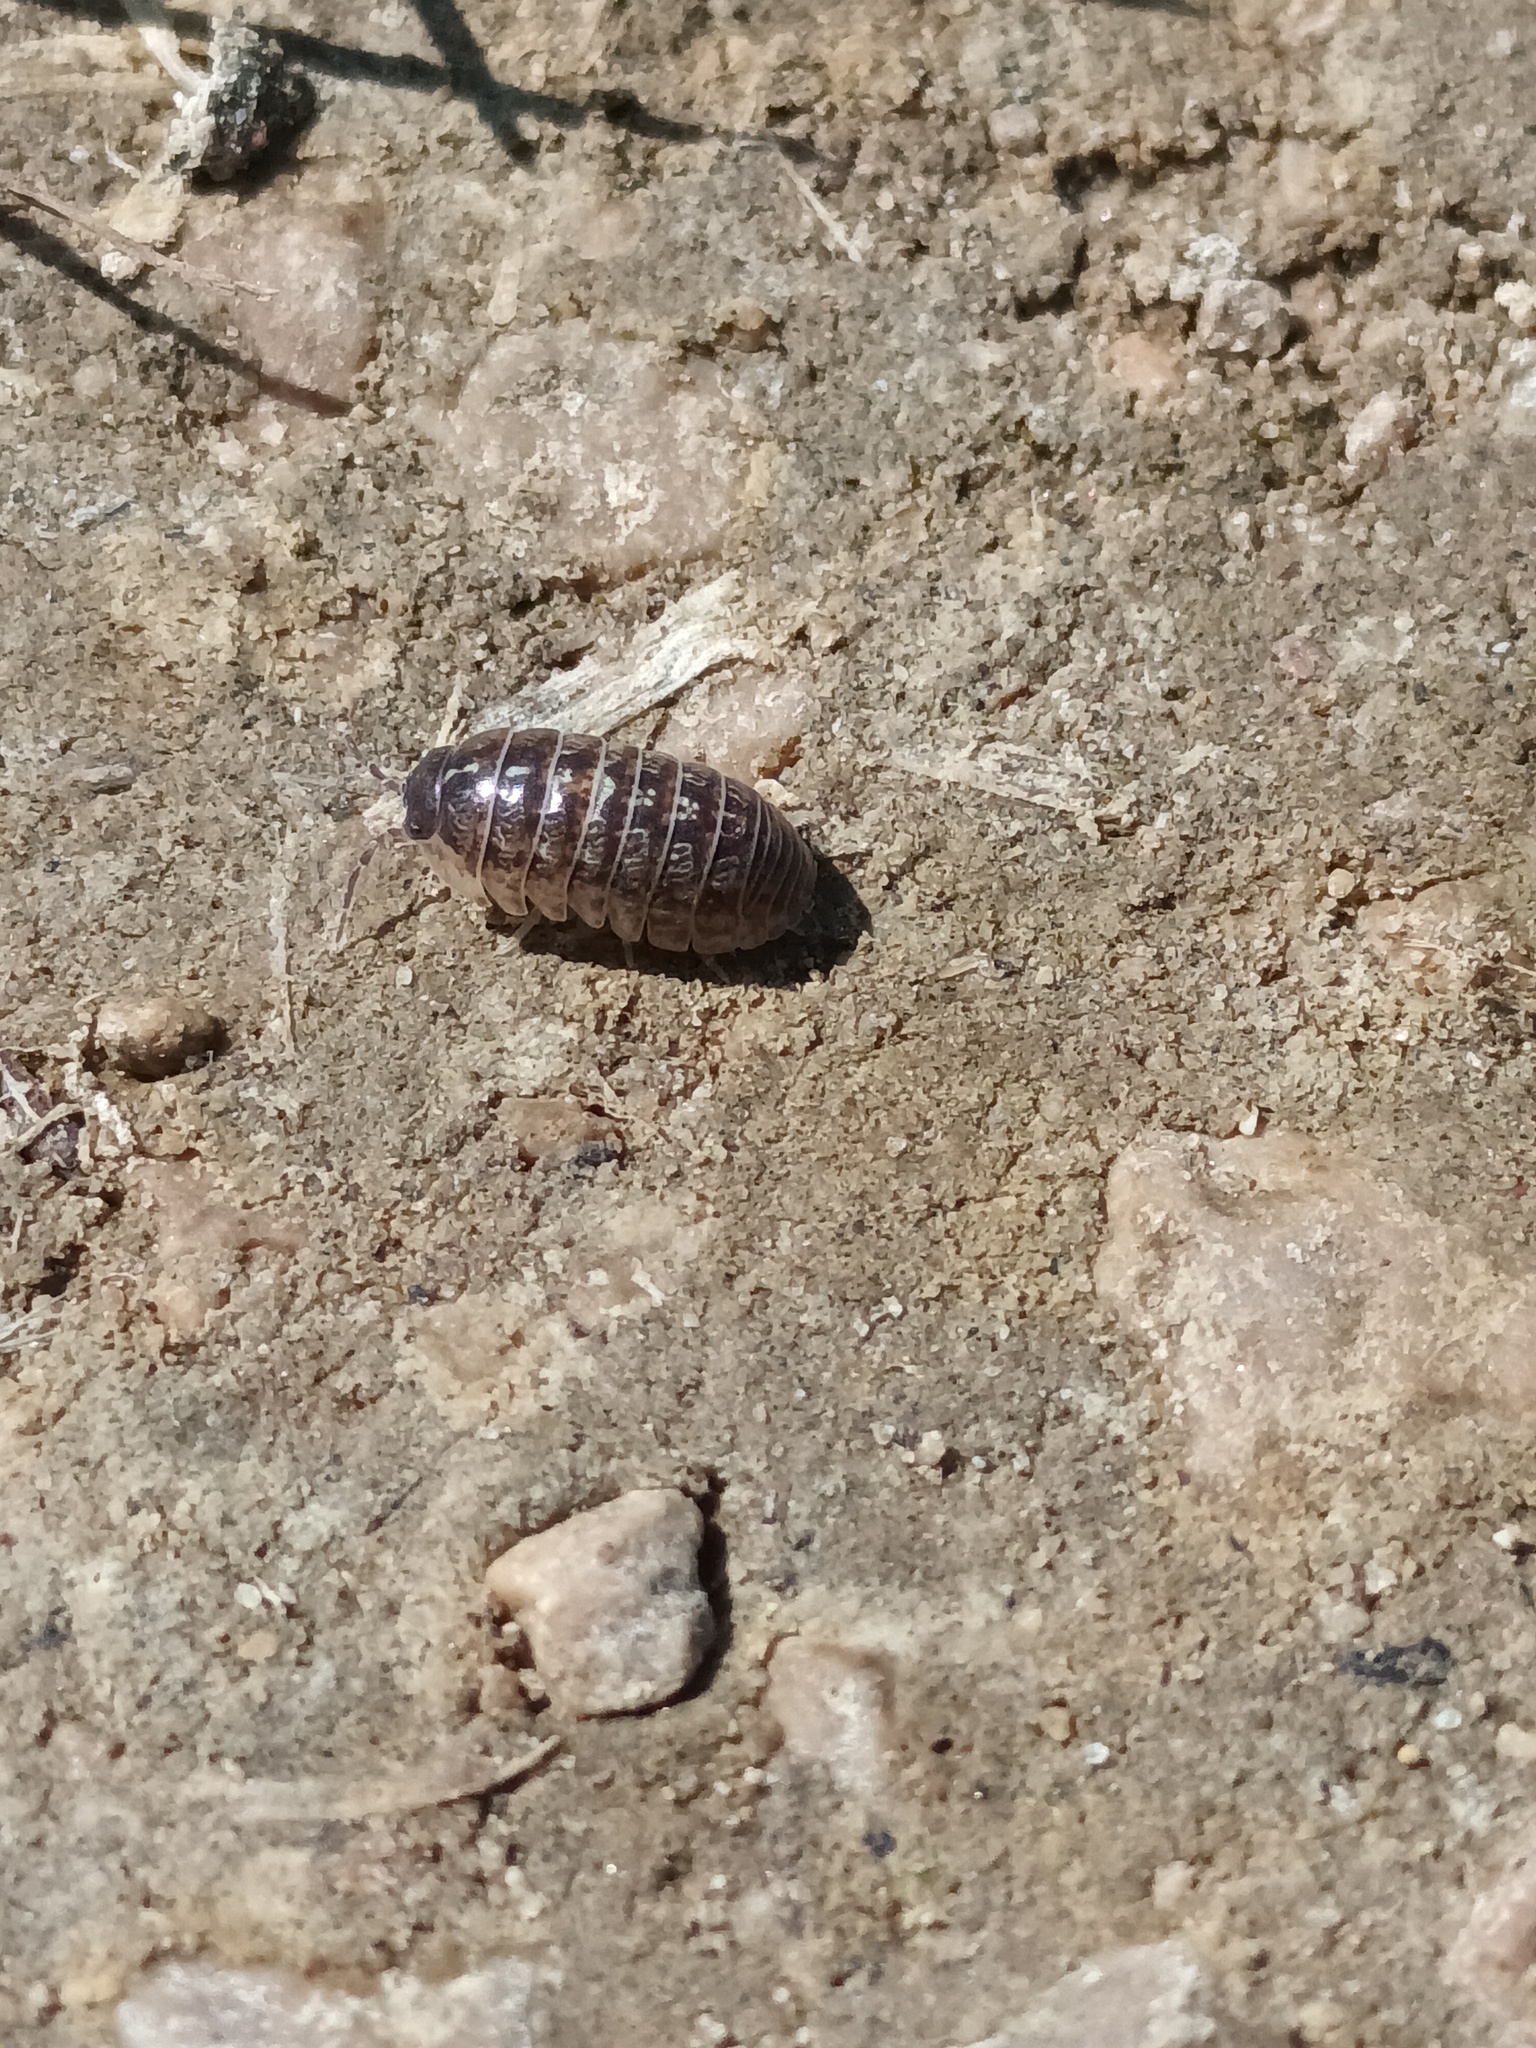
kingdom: Animalia
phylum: Arthropoda
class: Malacostraca
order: Isopoda
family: Armadillidiidae
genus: Armadillidium
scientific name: Armadillidium vulgare
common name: Common pill woodlouse
